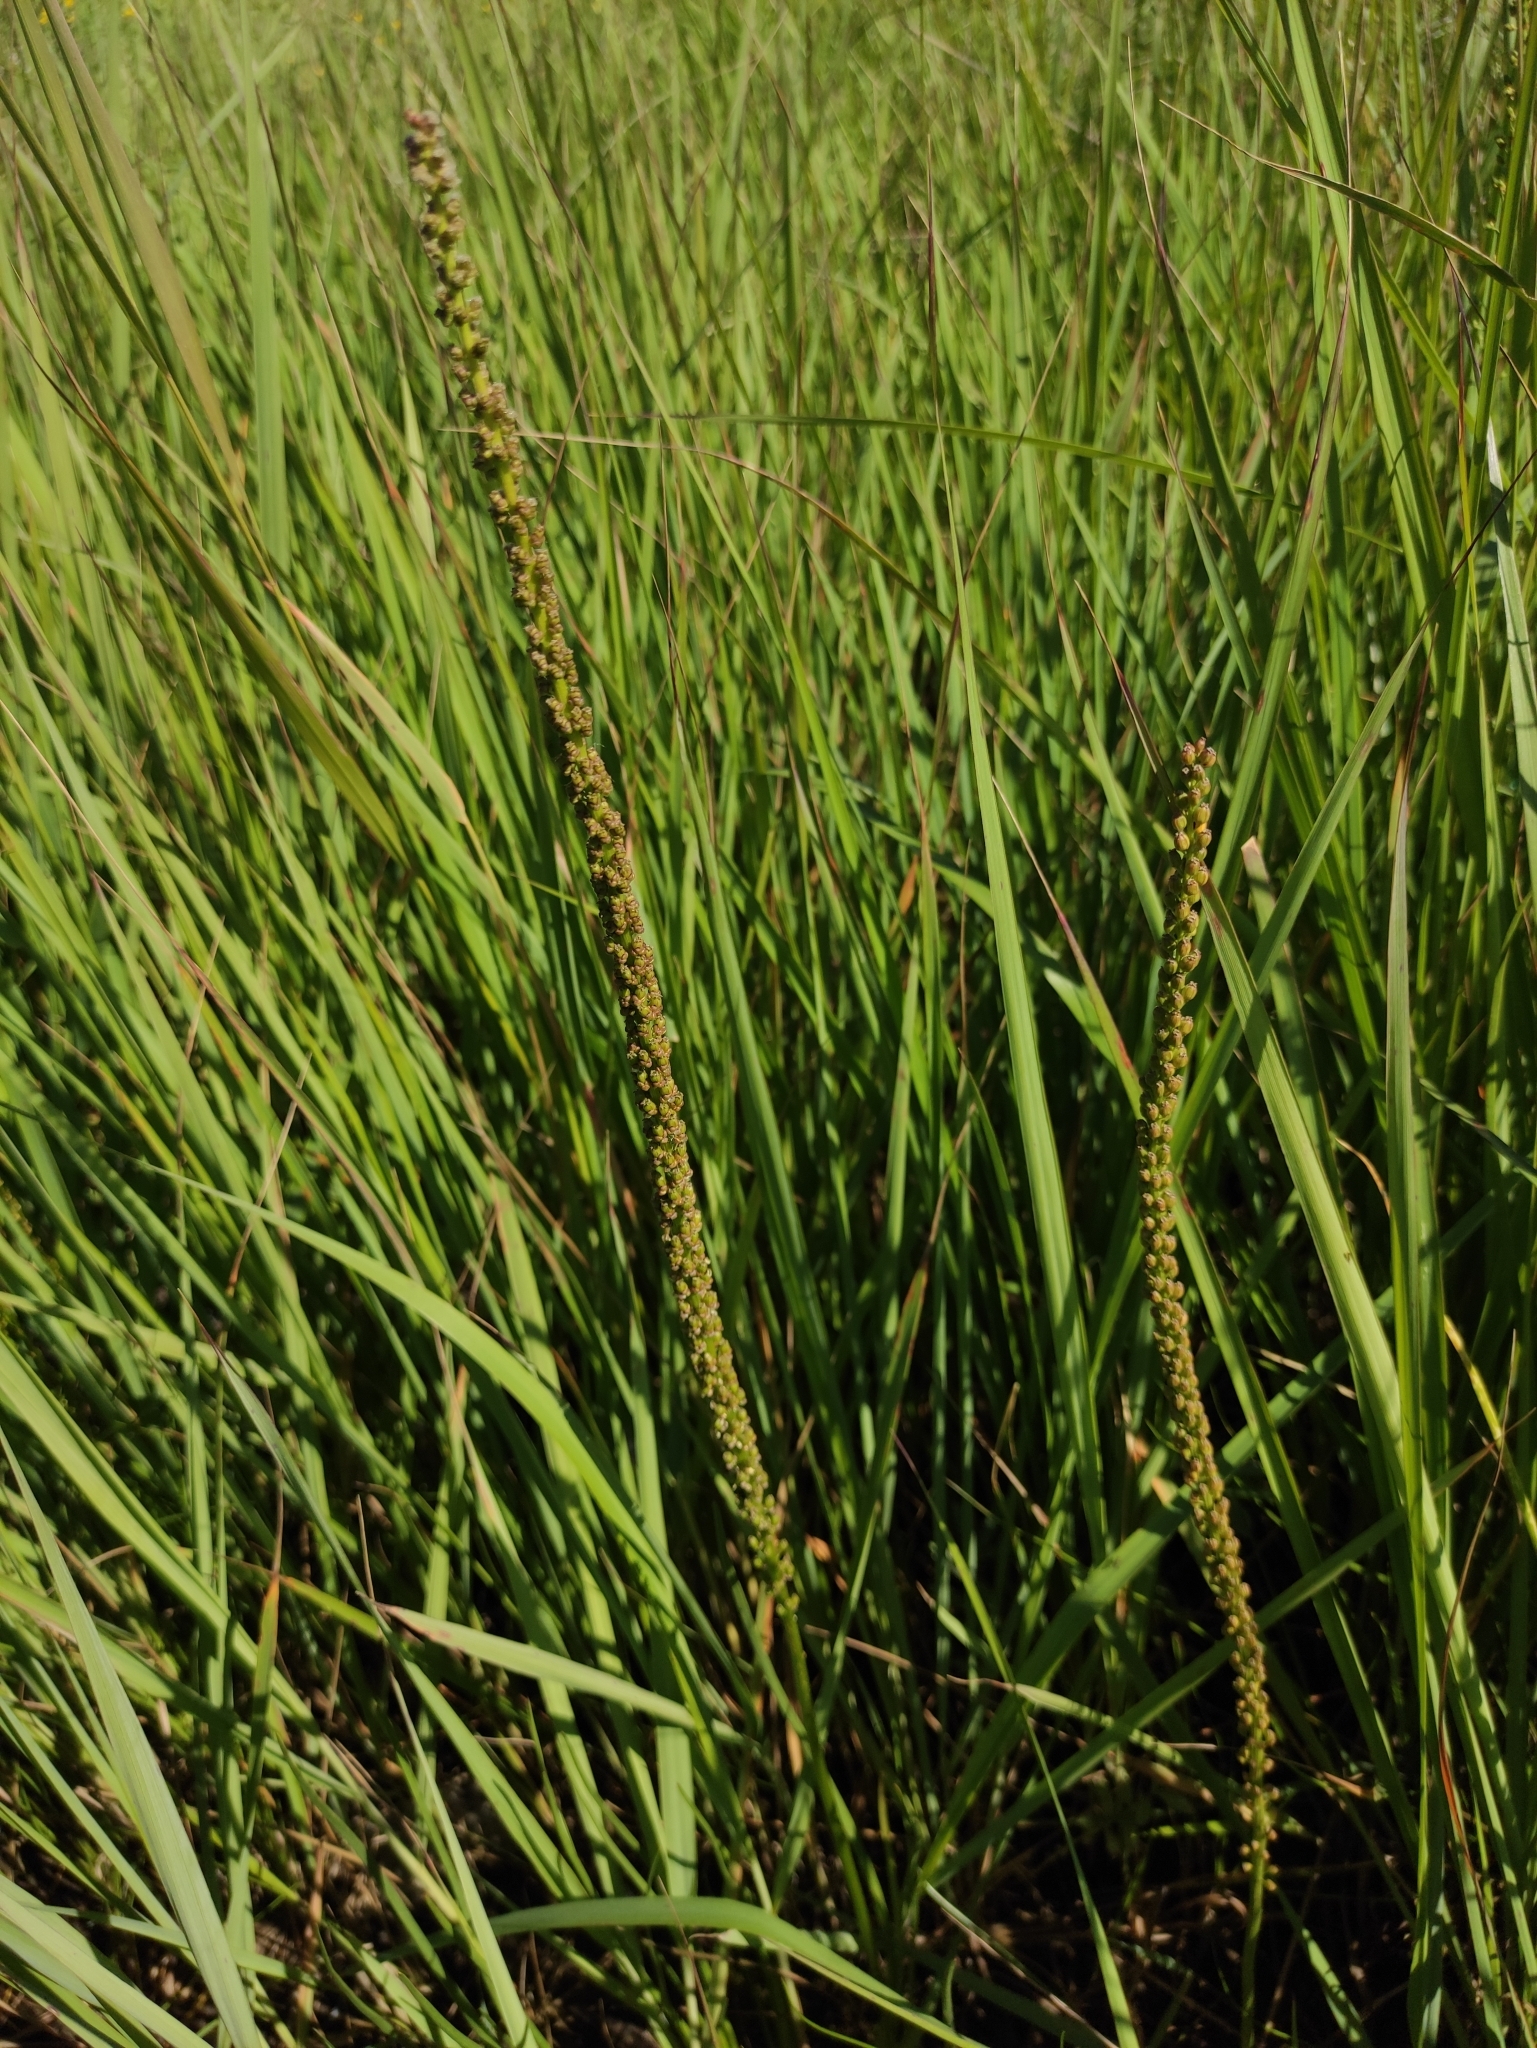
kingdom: Plantae
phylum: Tracheophyta
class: Liliopsida
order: Alismatales
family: Juncaginaceae
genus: Triglochin
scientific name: Triglochin maritima
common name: Sea arrowgrass
